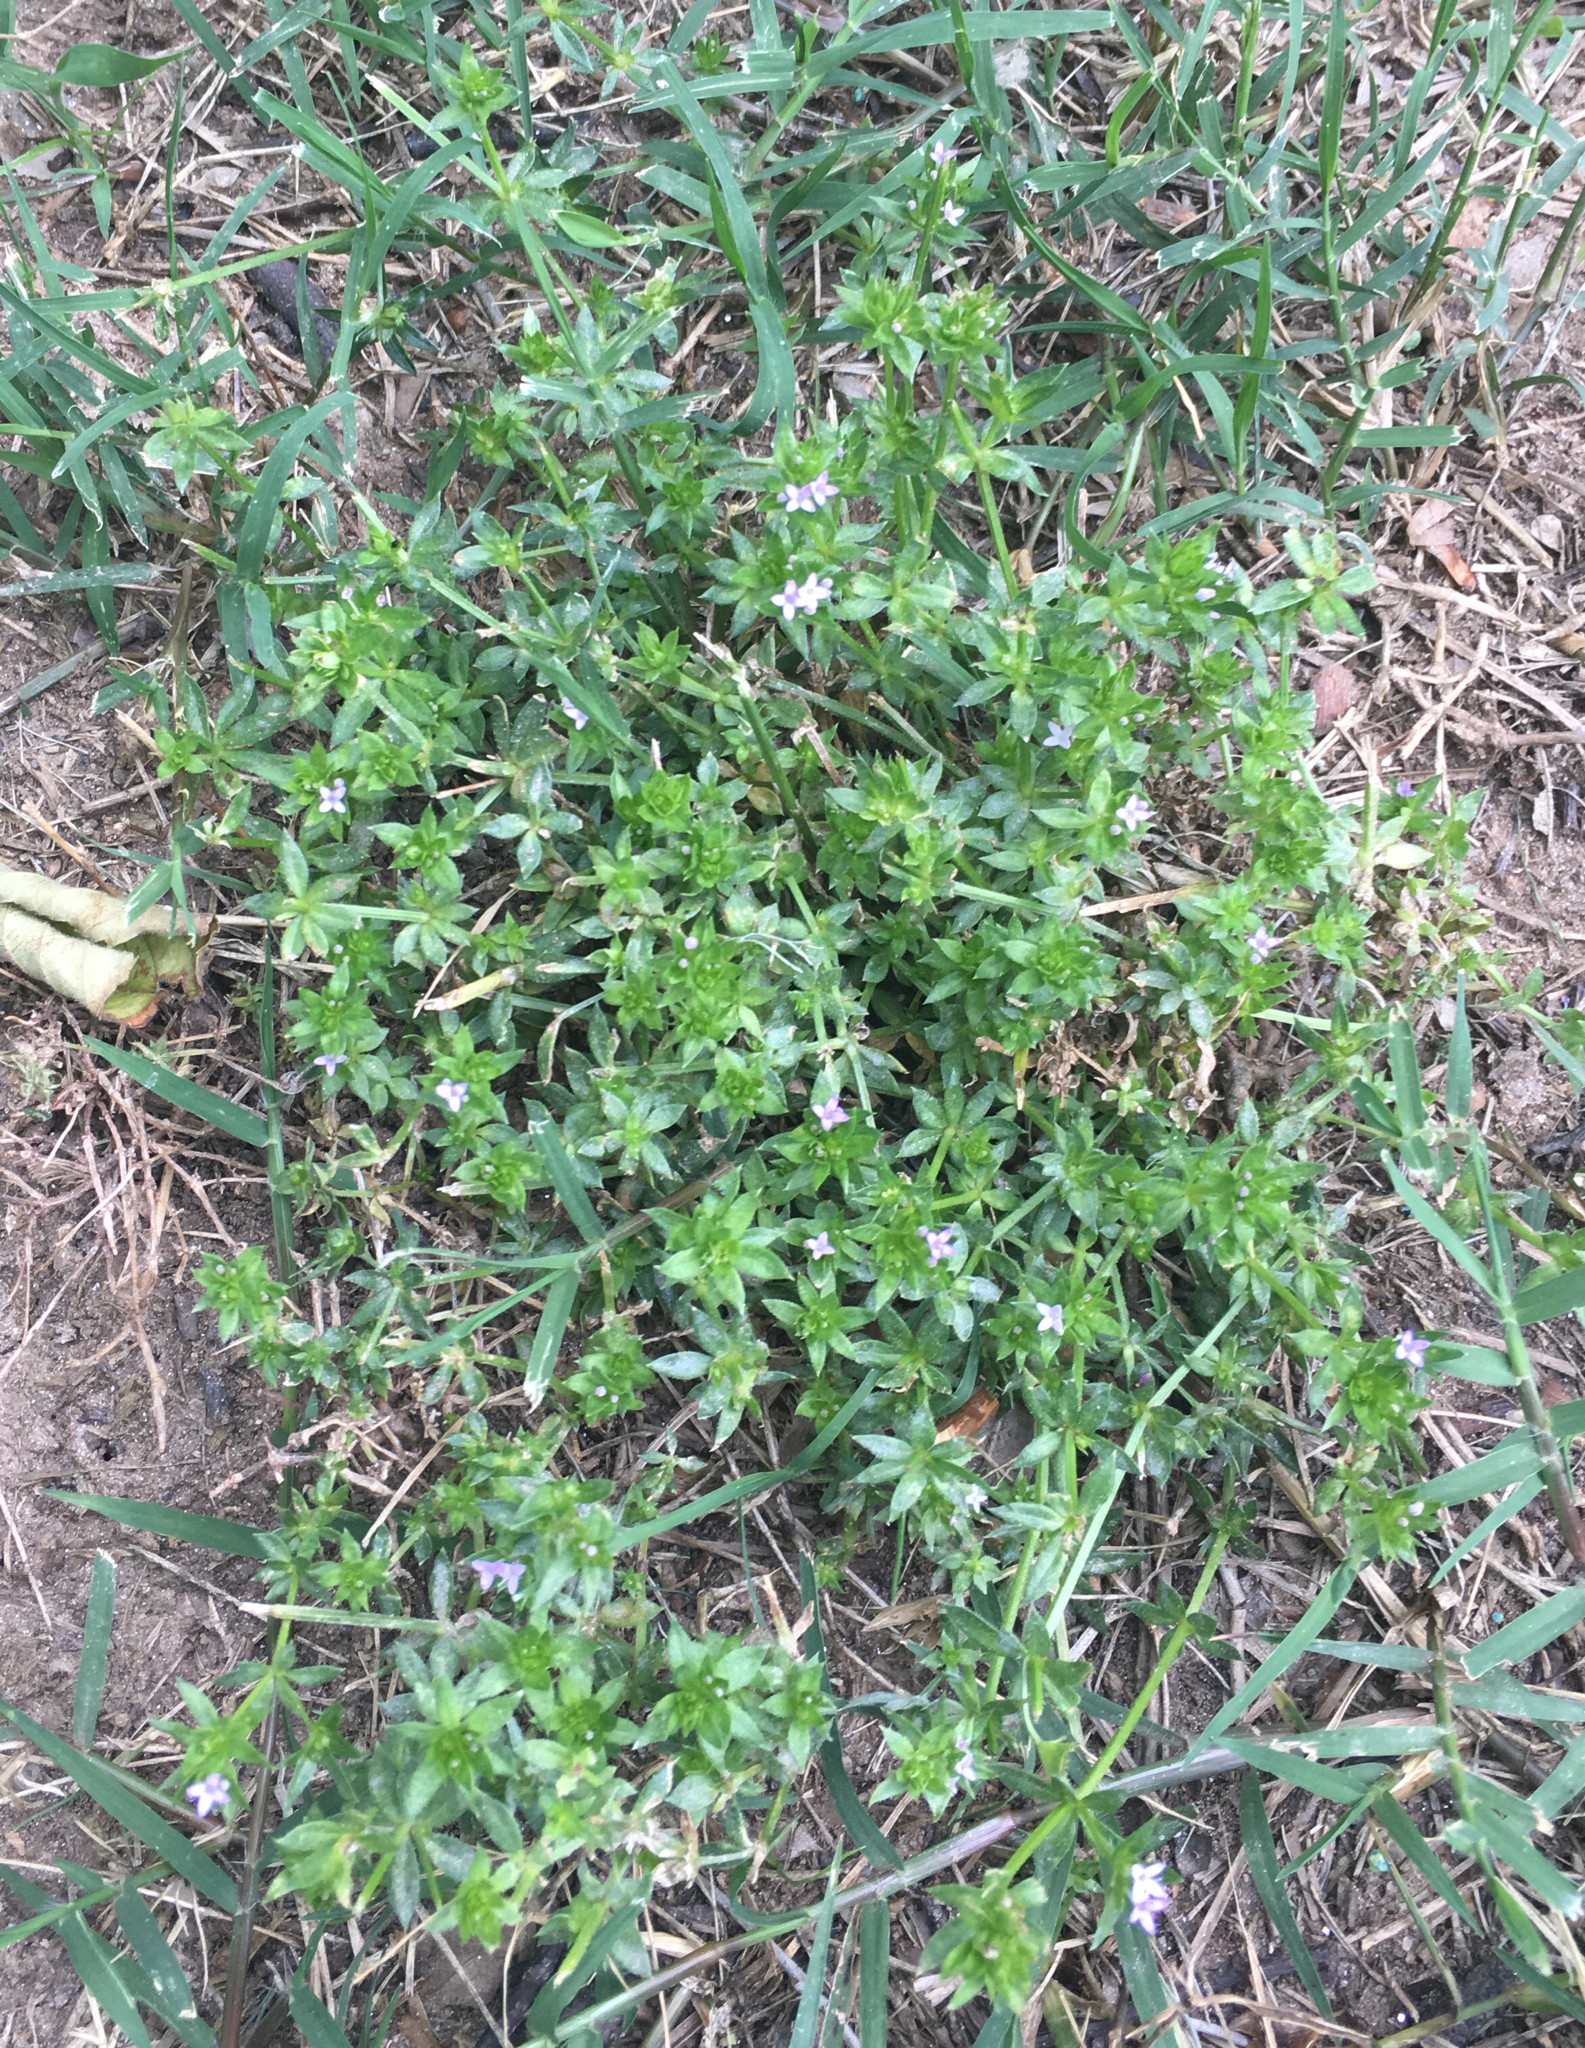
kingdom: Plantae
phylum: Tracheophyta
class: Magnoliopsida
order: Gentianales
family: Rubiaceae
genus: Sherardia
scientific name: Sherardia arvensis
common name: Field madder
